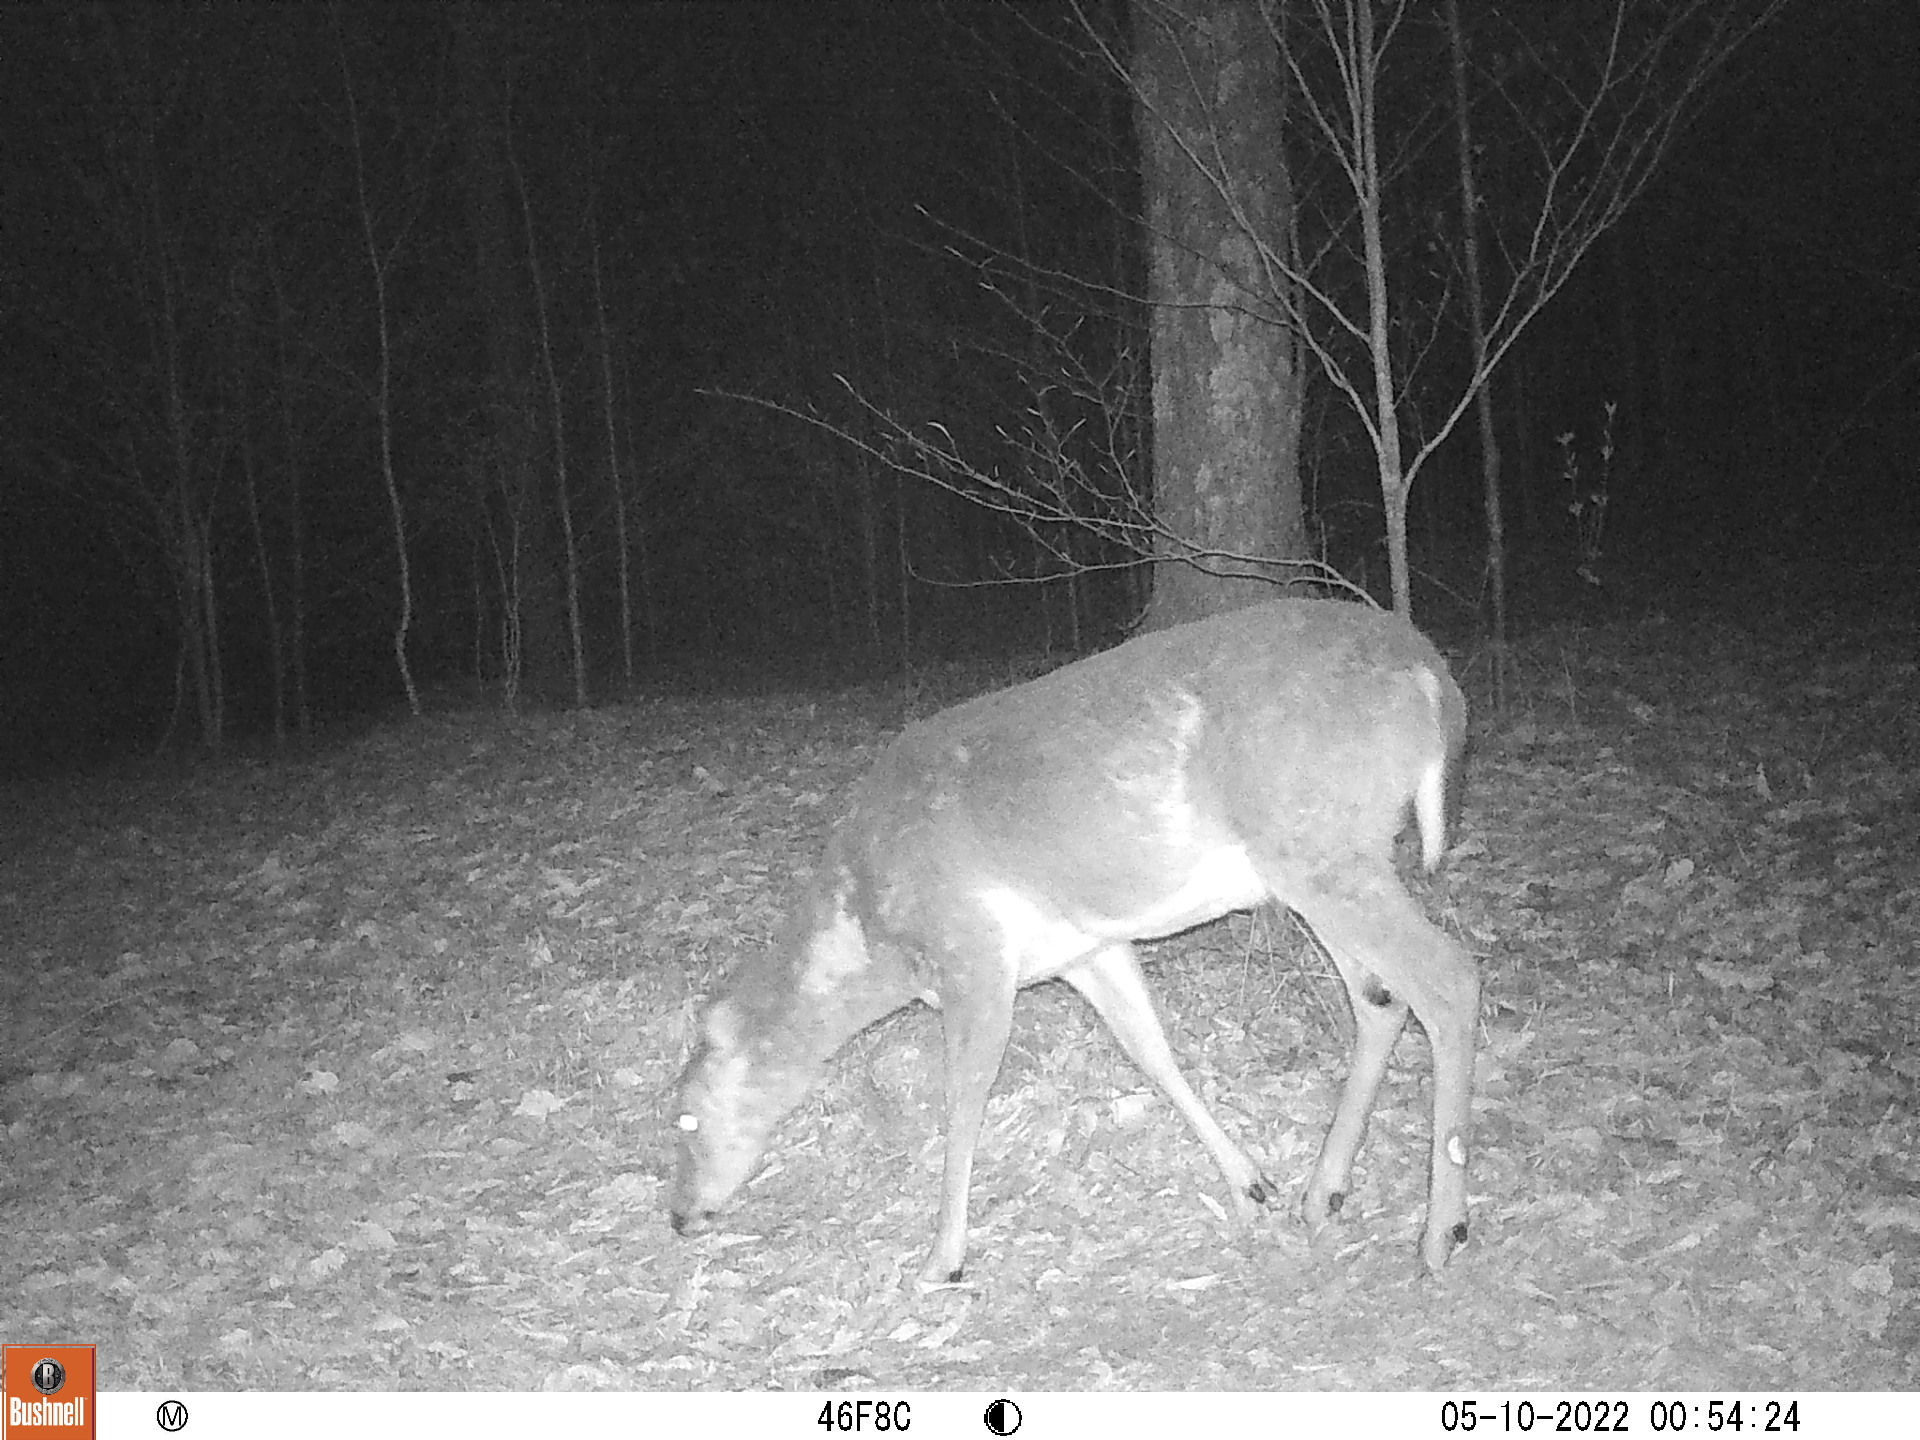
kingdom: Animalia
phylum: Chordata
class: Mammalia
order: Artiodactyla
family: Cervidae
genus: Odocoileus
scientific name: Odocoileus virginianus
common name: White-tailed deer
